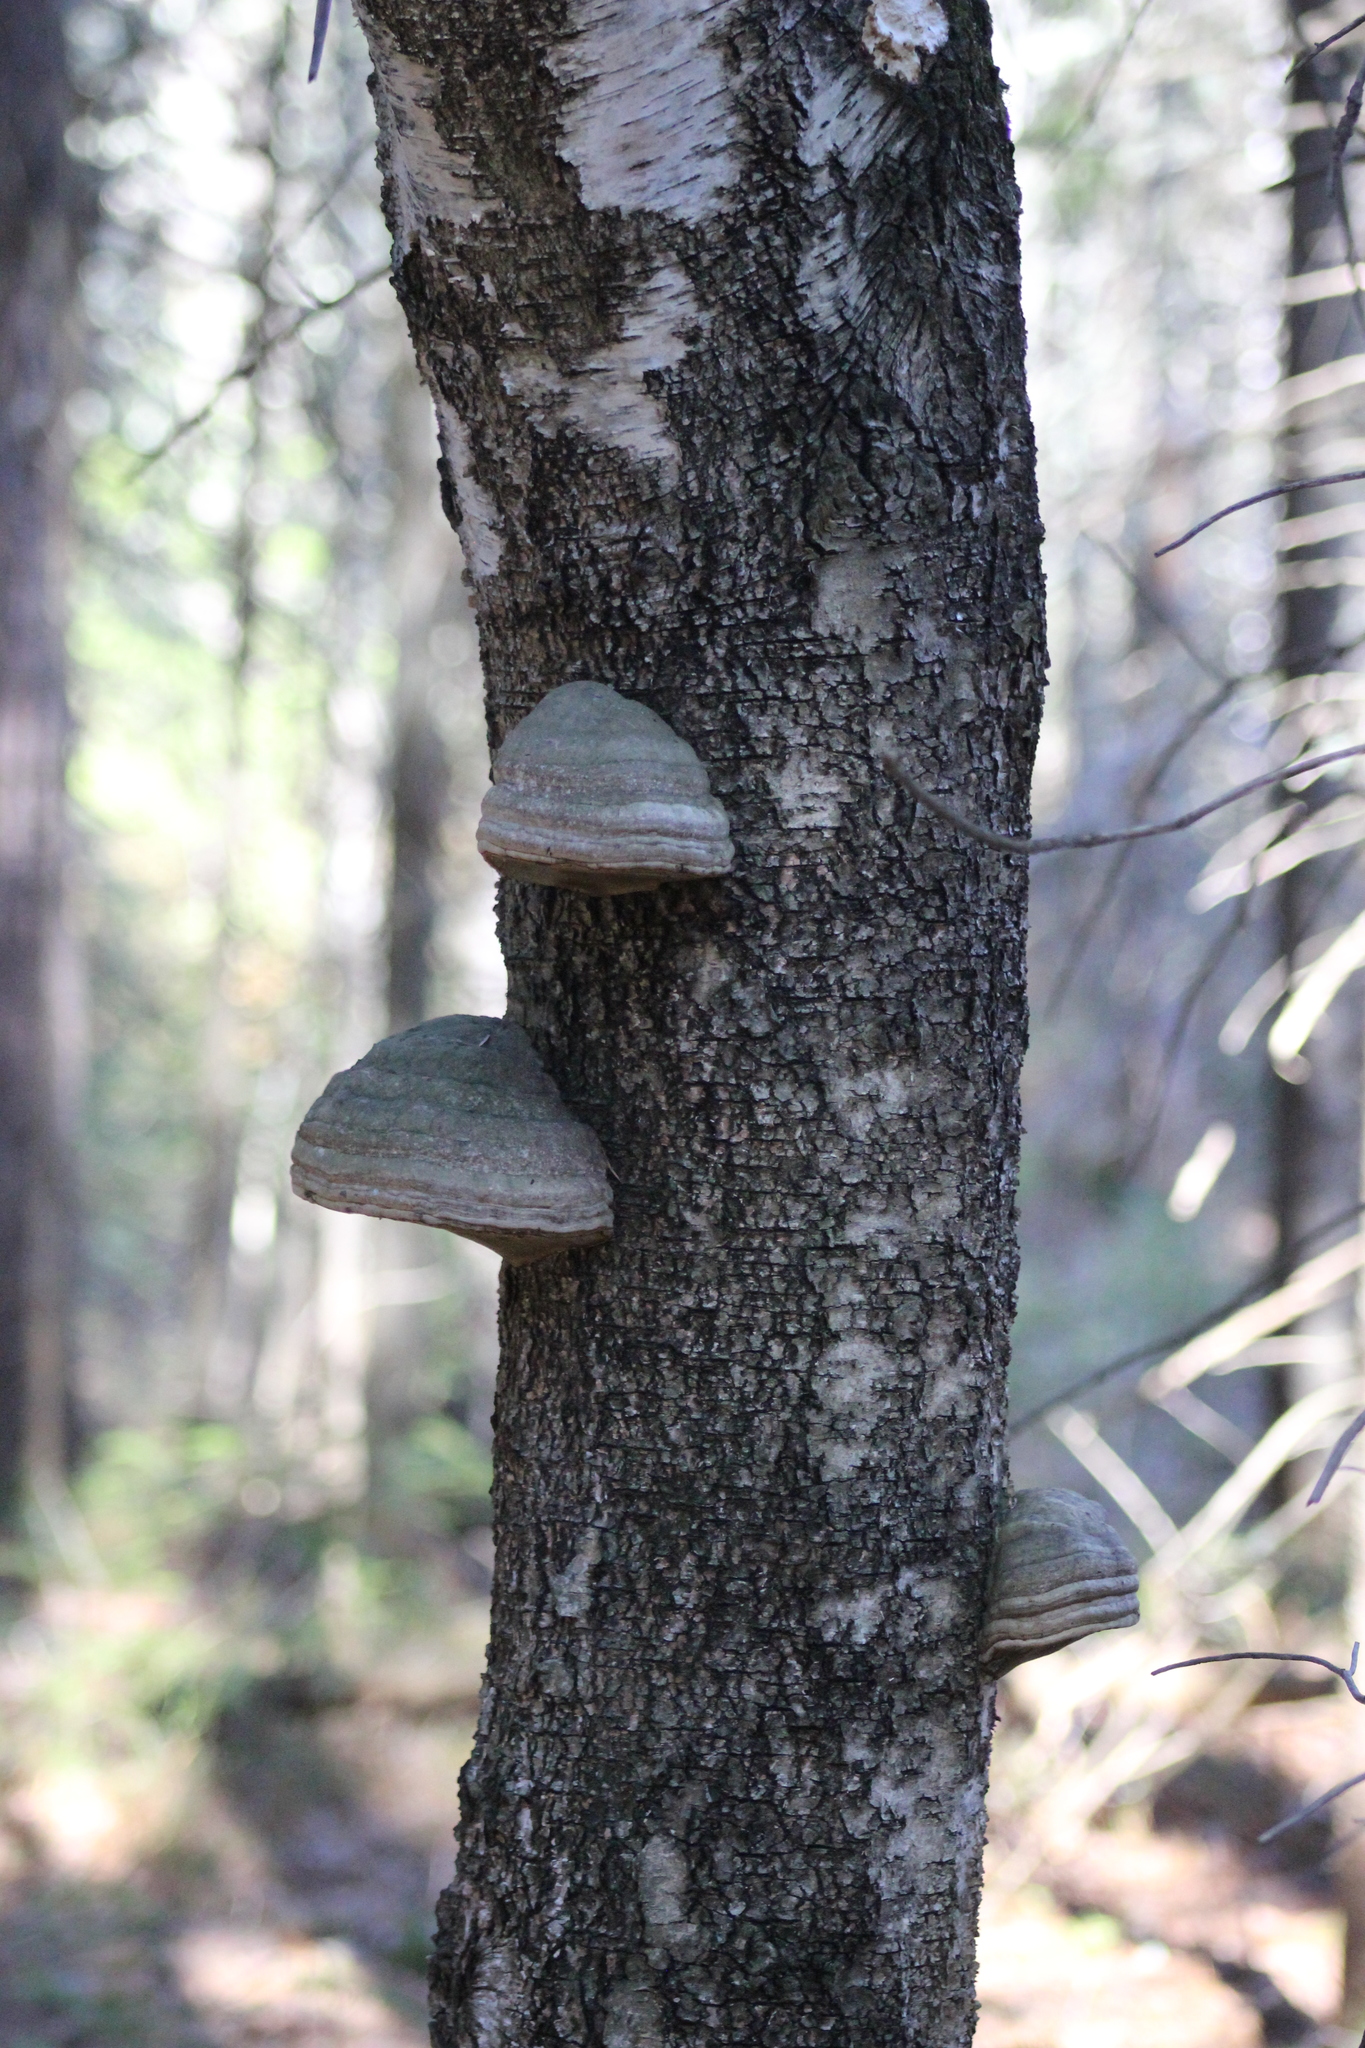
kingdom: Fungi
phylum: Basidiomycota
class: Agaricomycetes
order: Polyporales
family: Polyporaceae
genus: Fomes
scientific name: Fomes fomentarius
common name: Hoof fungus
